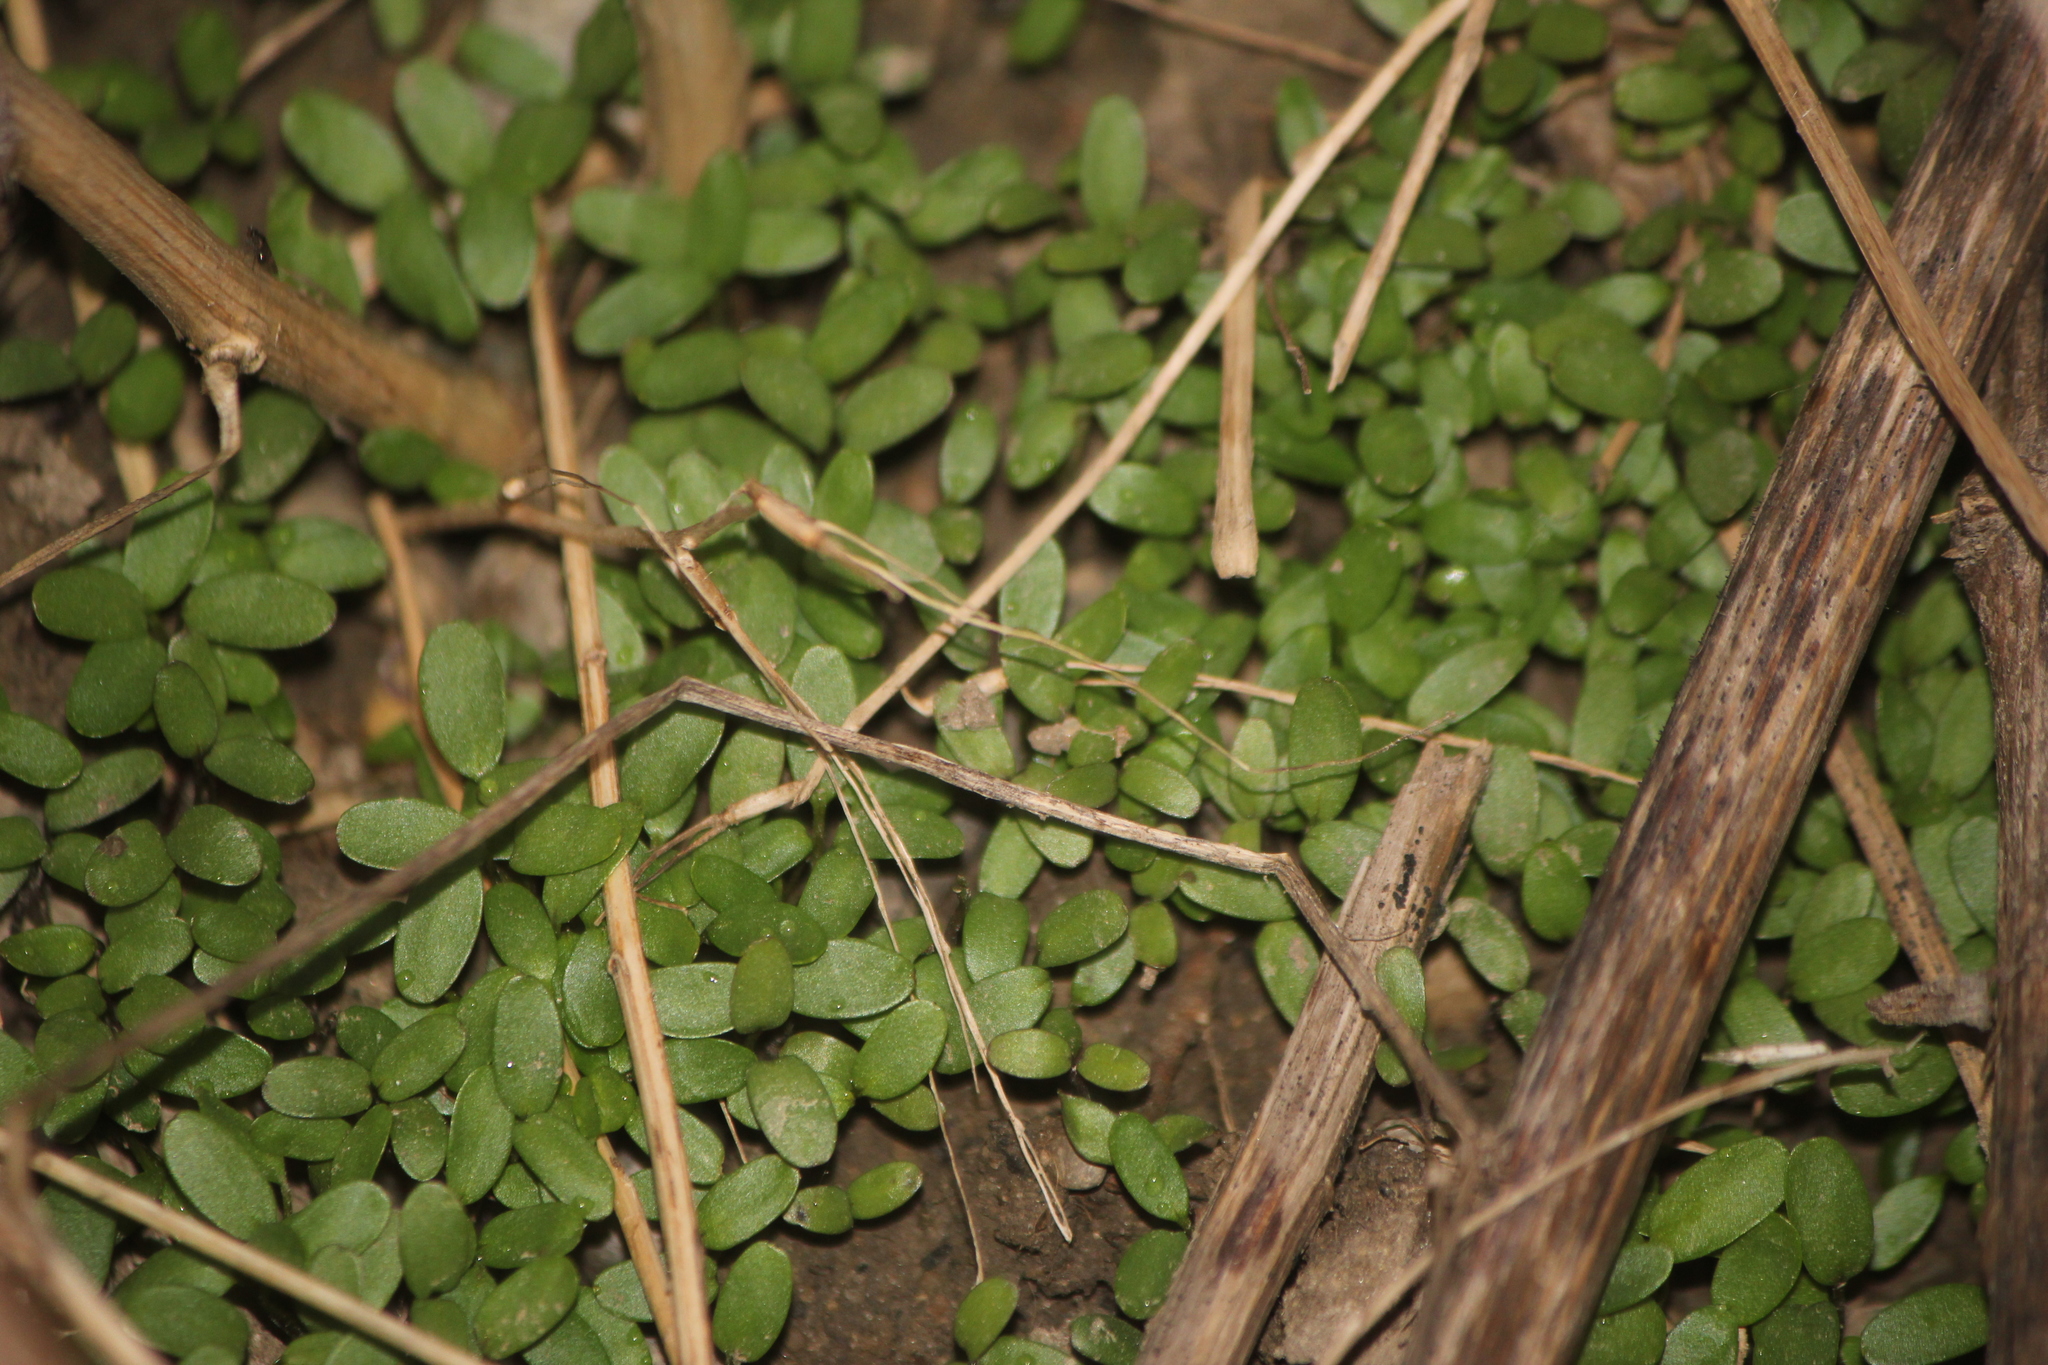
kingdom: Plantae
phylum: Tracheophyta
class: Magnoliopsida
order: Brassicales
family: Brassicaceae
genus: Alliaria
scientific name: Alliaria petiolata
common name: Garlic mustard
